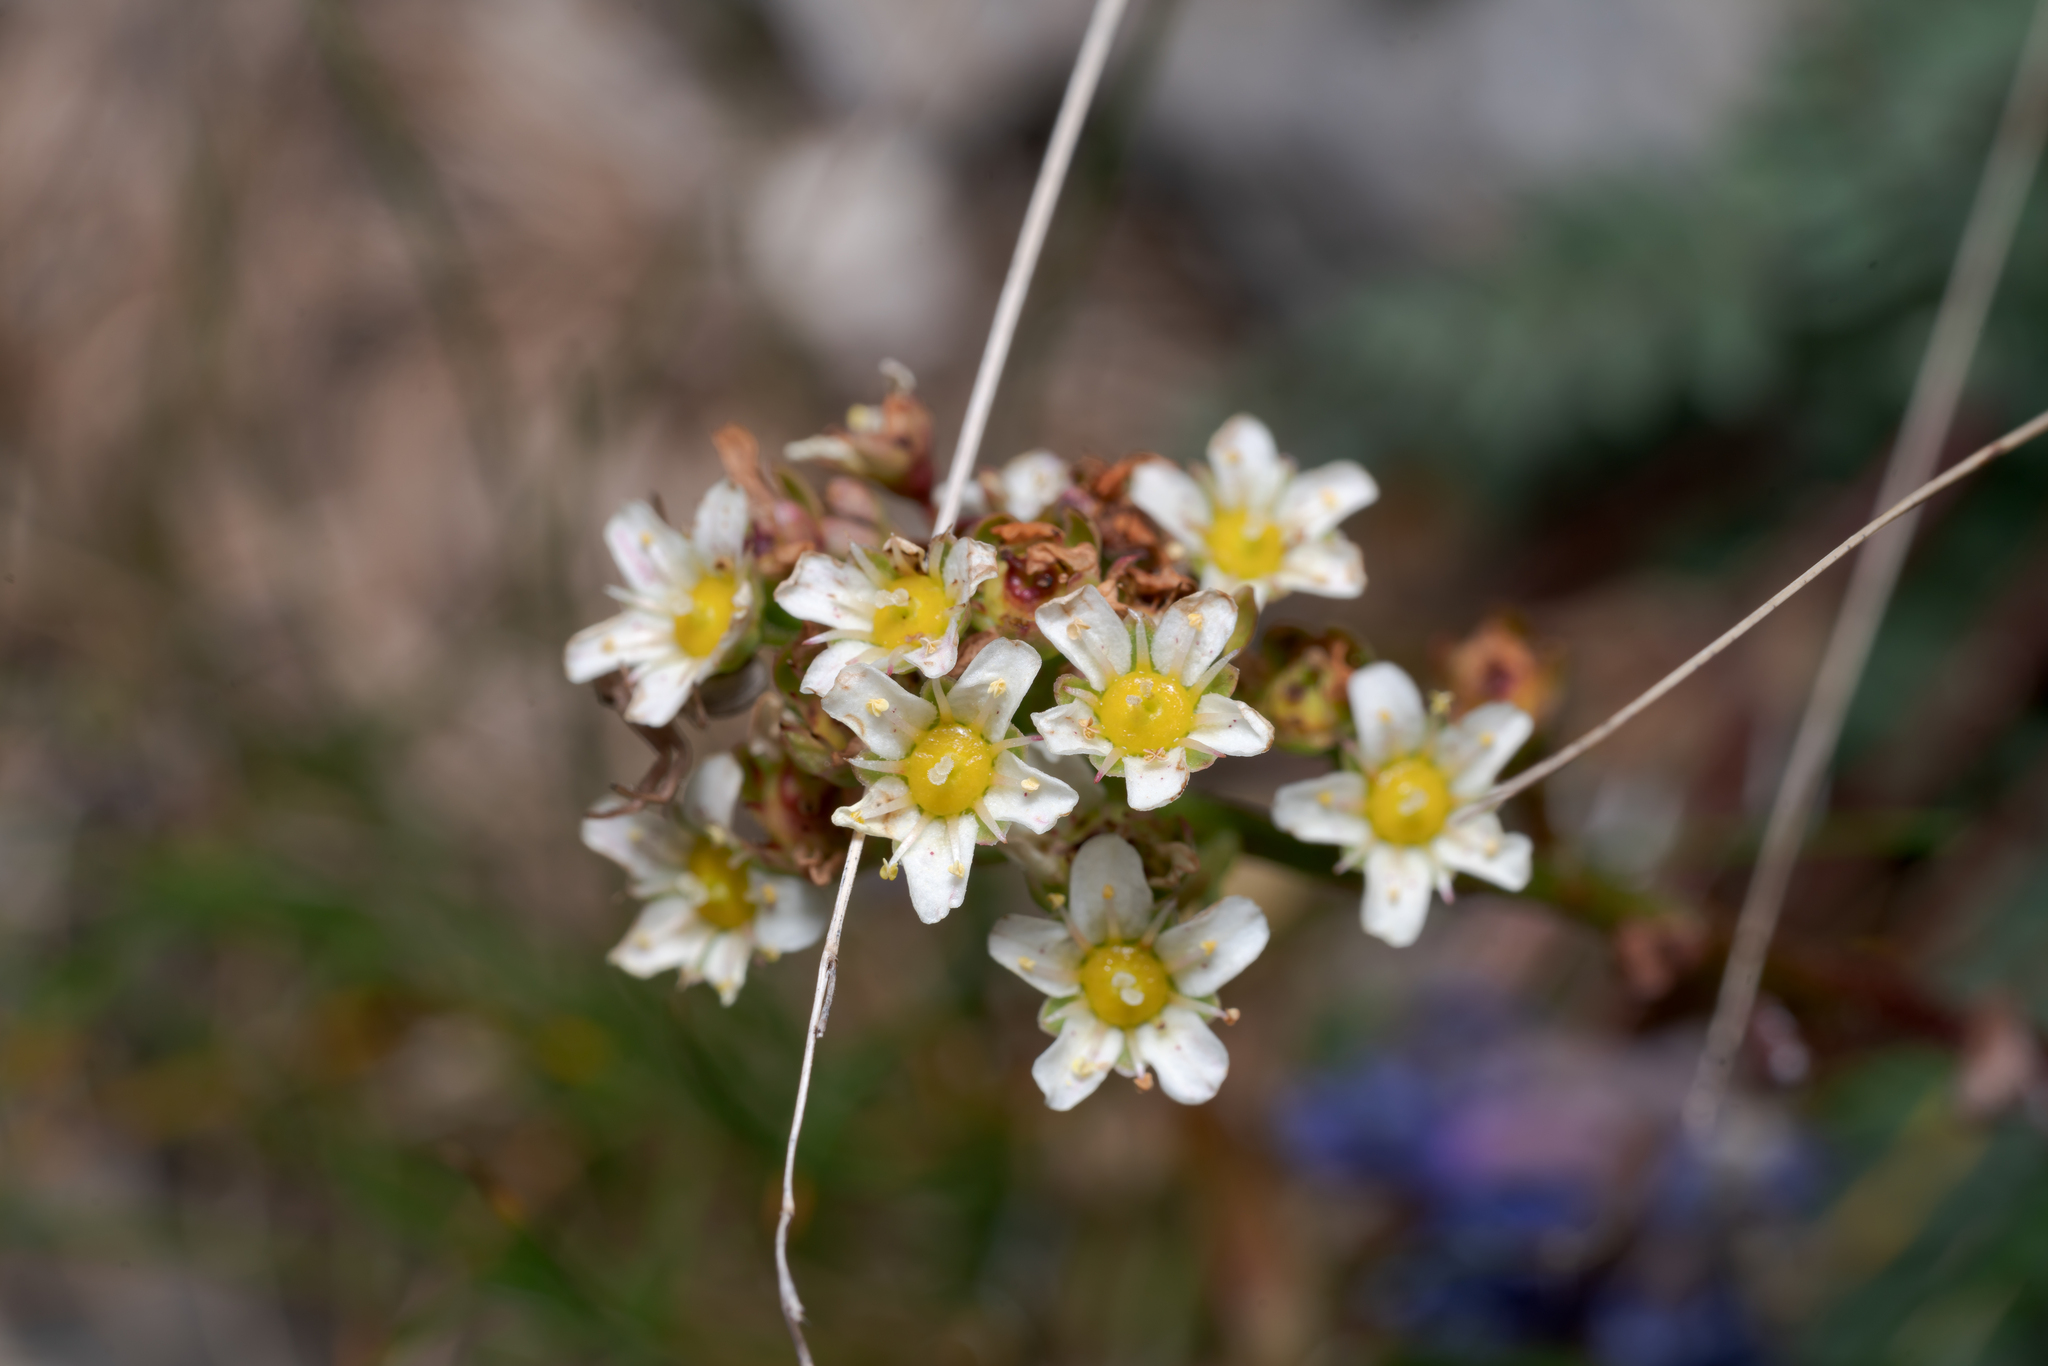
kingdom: Plantae
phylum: Tracheophyta
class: Magnoliopsida
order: Saxifragales
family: Saxifragaceae
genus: Saxifraga
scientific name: Saxifraga paniculata
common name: Livelong saxifrage
